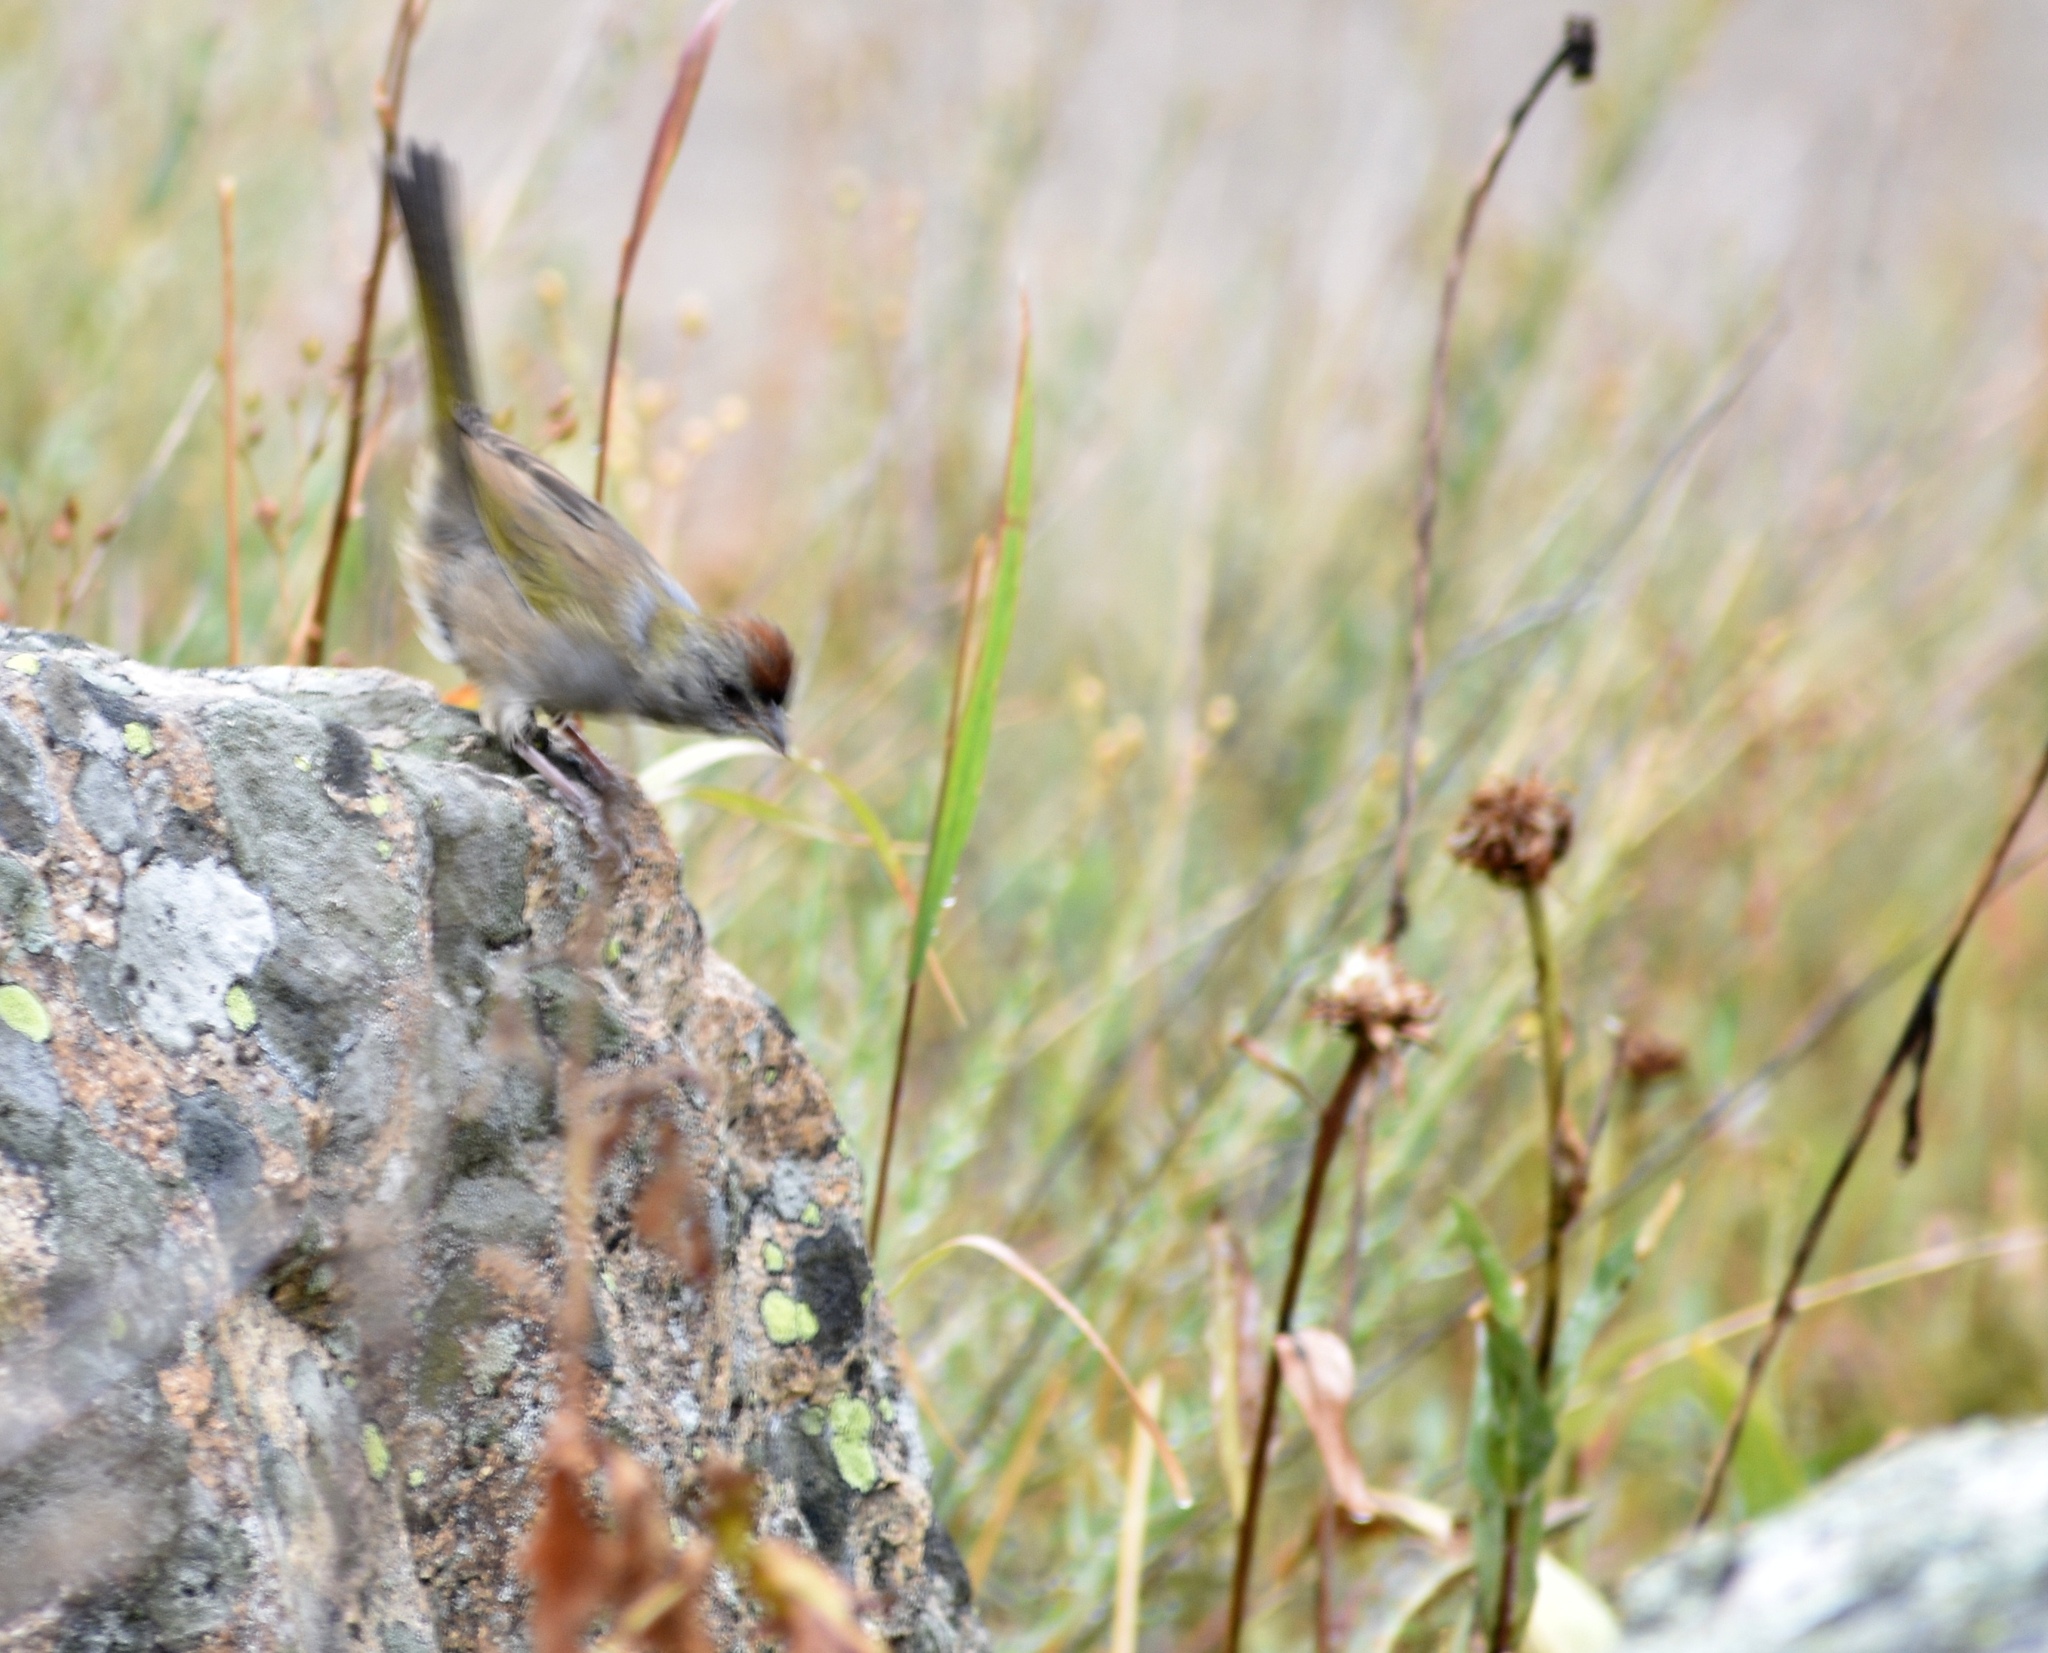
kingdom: Animalia
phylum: Chordata
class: Aves
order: Passeriformes
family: Passerellidae
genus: Pipilo
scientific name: Pipilo chlorurus
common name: Green-tailed towhee
